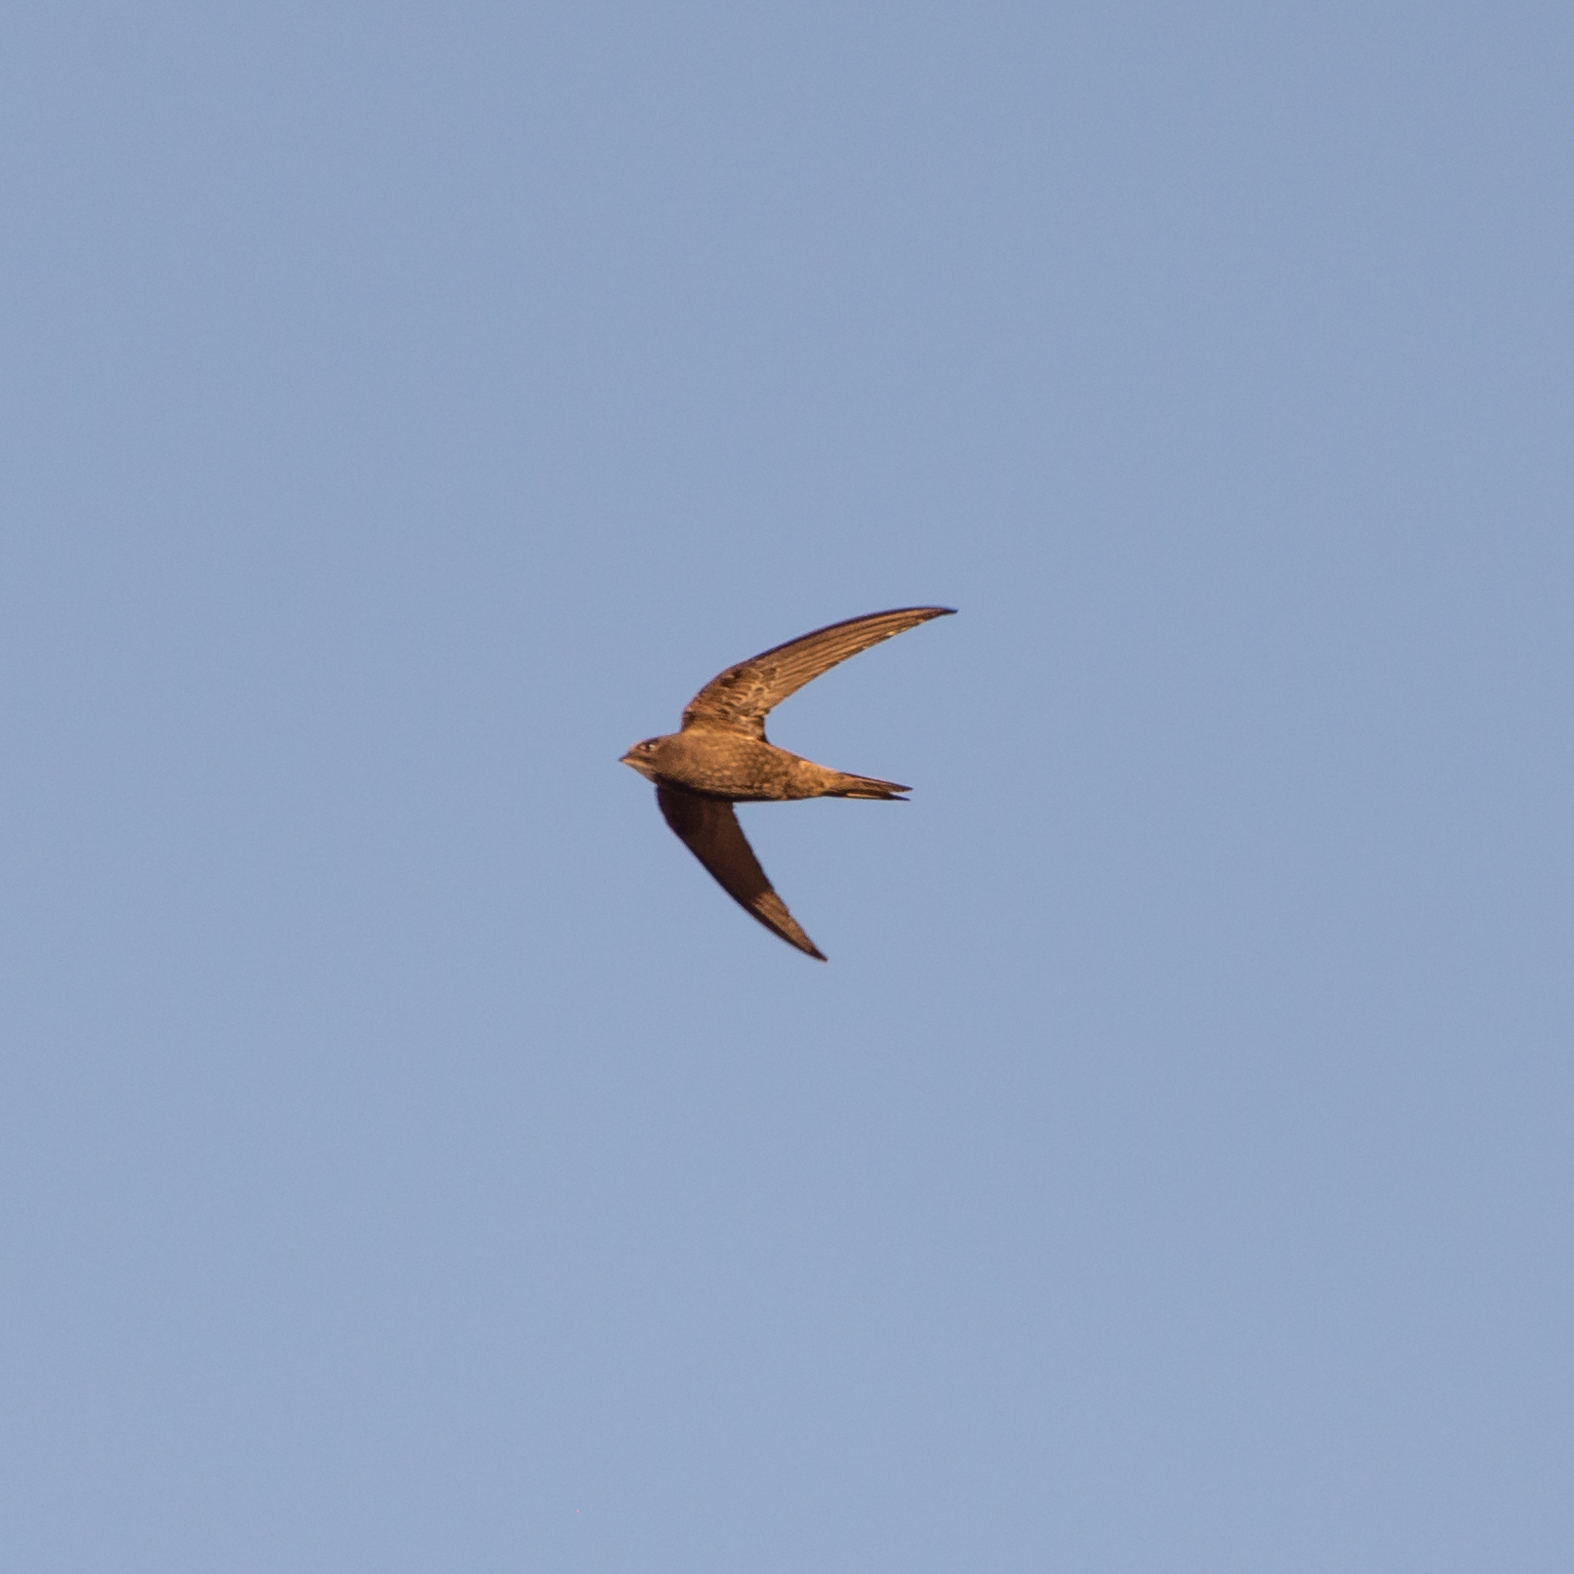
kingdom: Animalia
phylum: Chordata
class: Aves
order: Apodiformes
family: Apodidae
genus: Apus
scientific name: Apus apus
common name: Common swift
